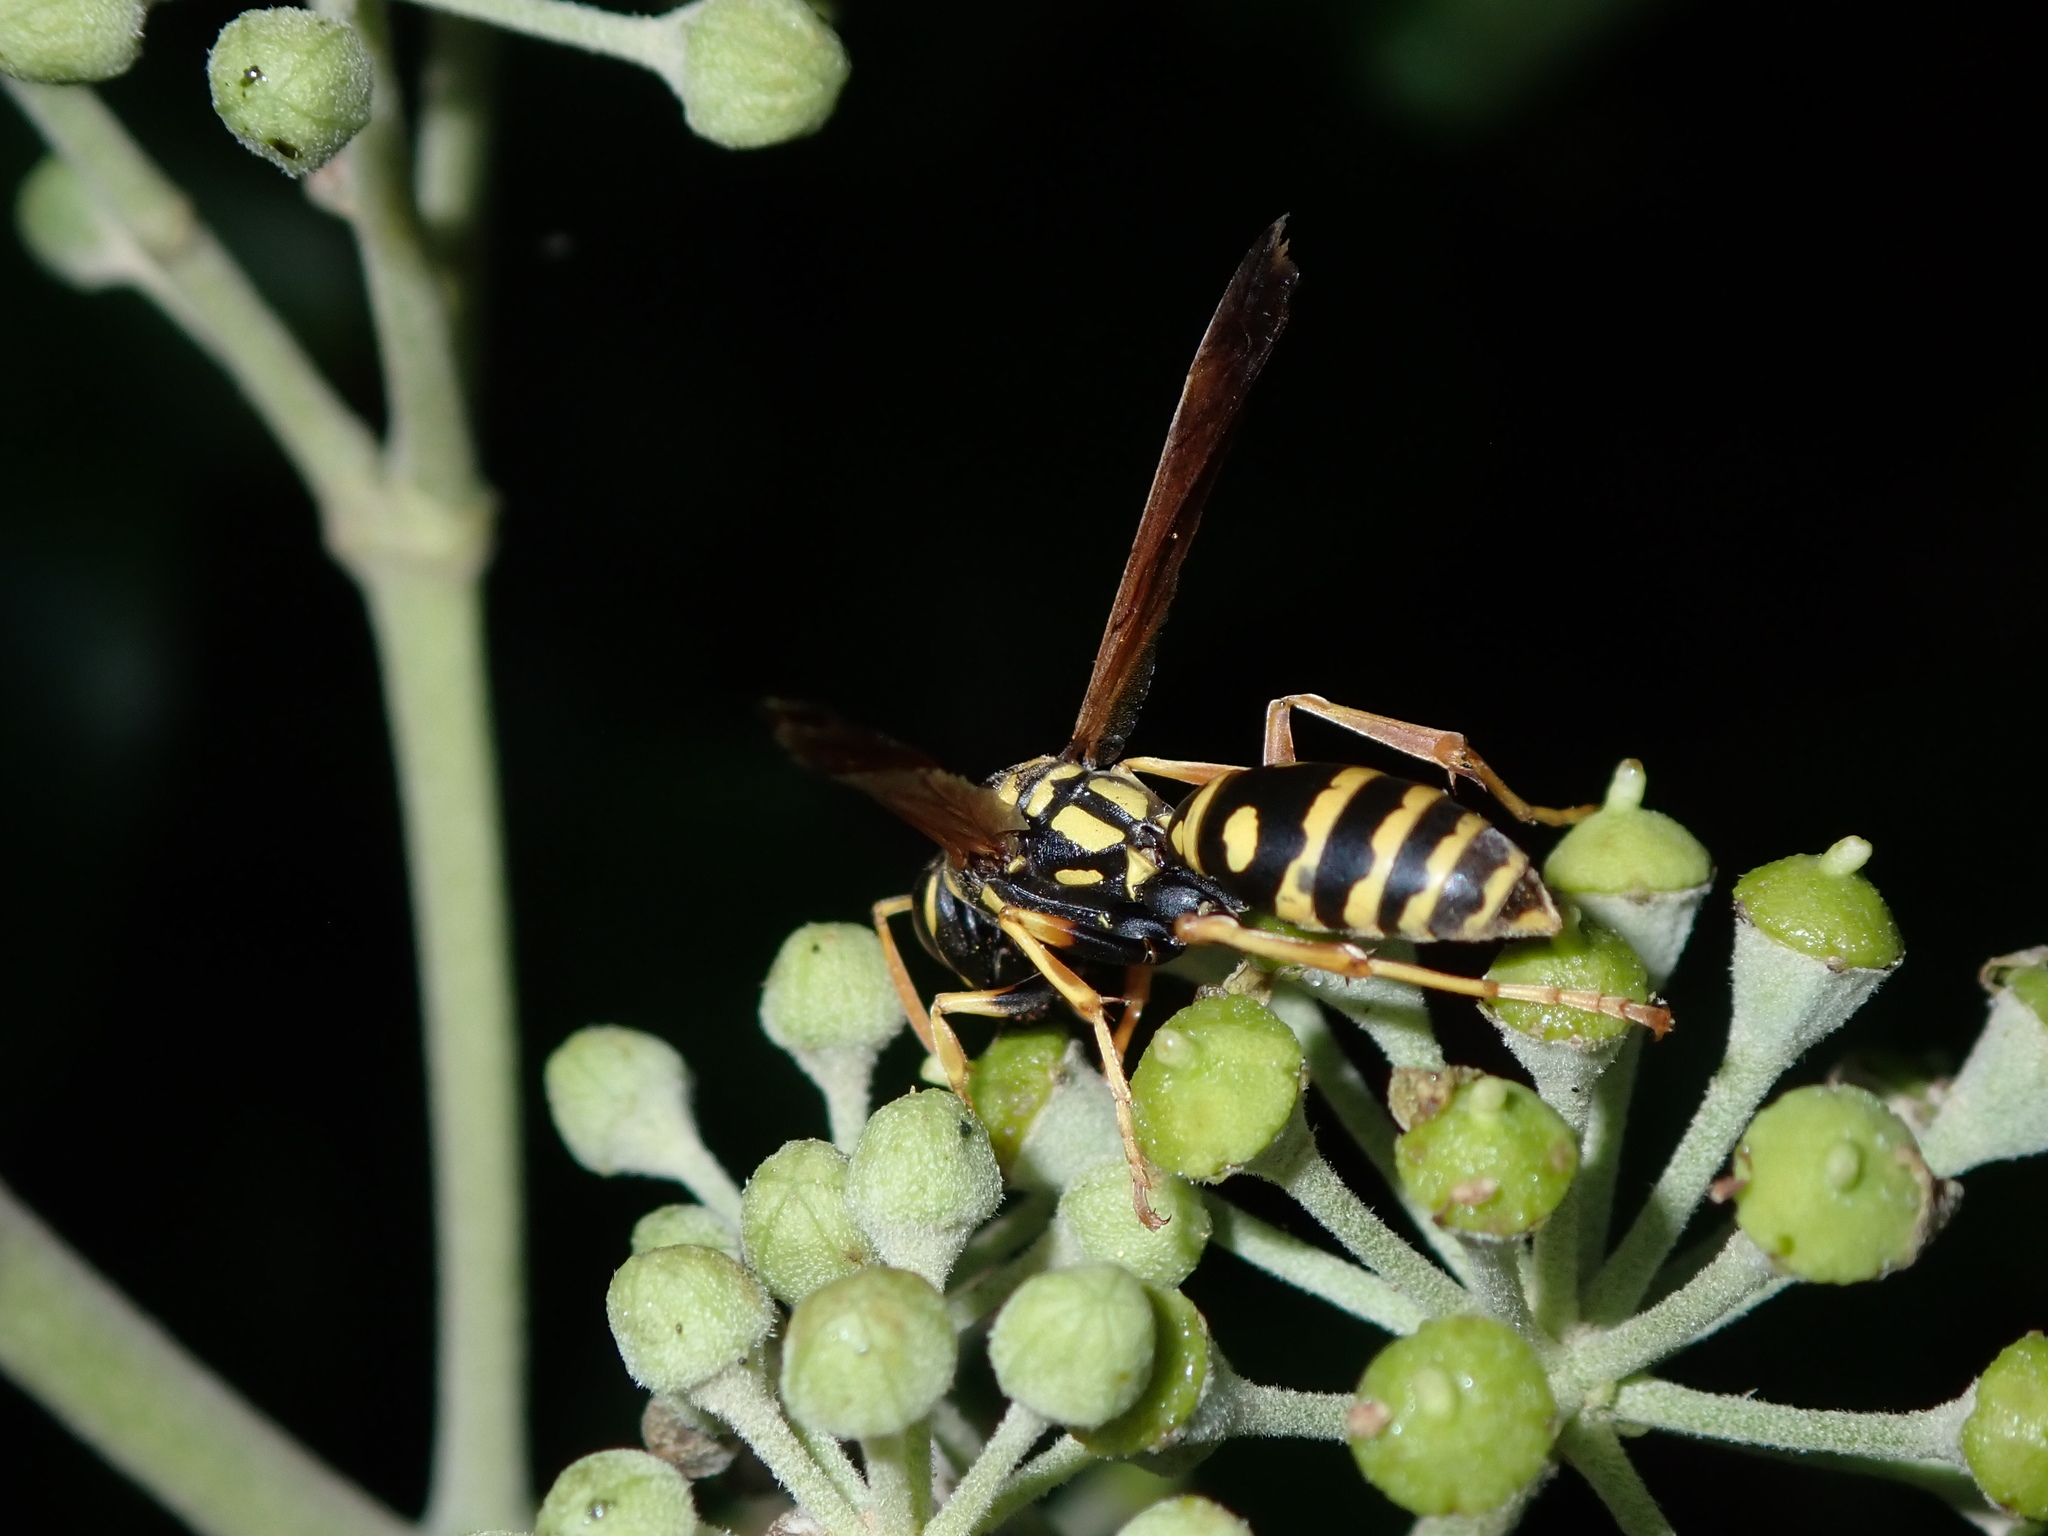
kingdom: Animalia
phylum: Arthropoda
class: Insecta
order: Hymenoptera
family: Eumenidae
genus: Polistes
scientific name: Polistes chinensis
